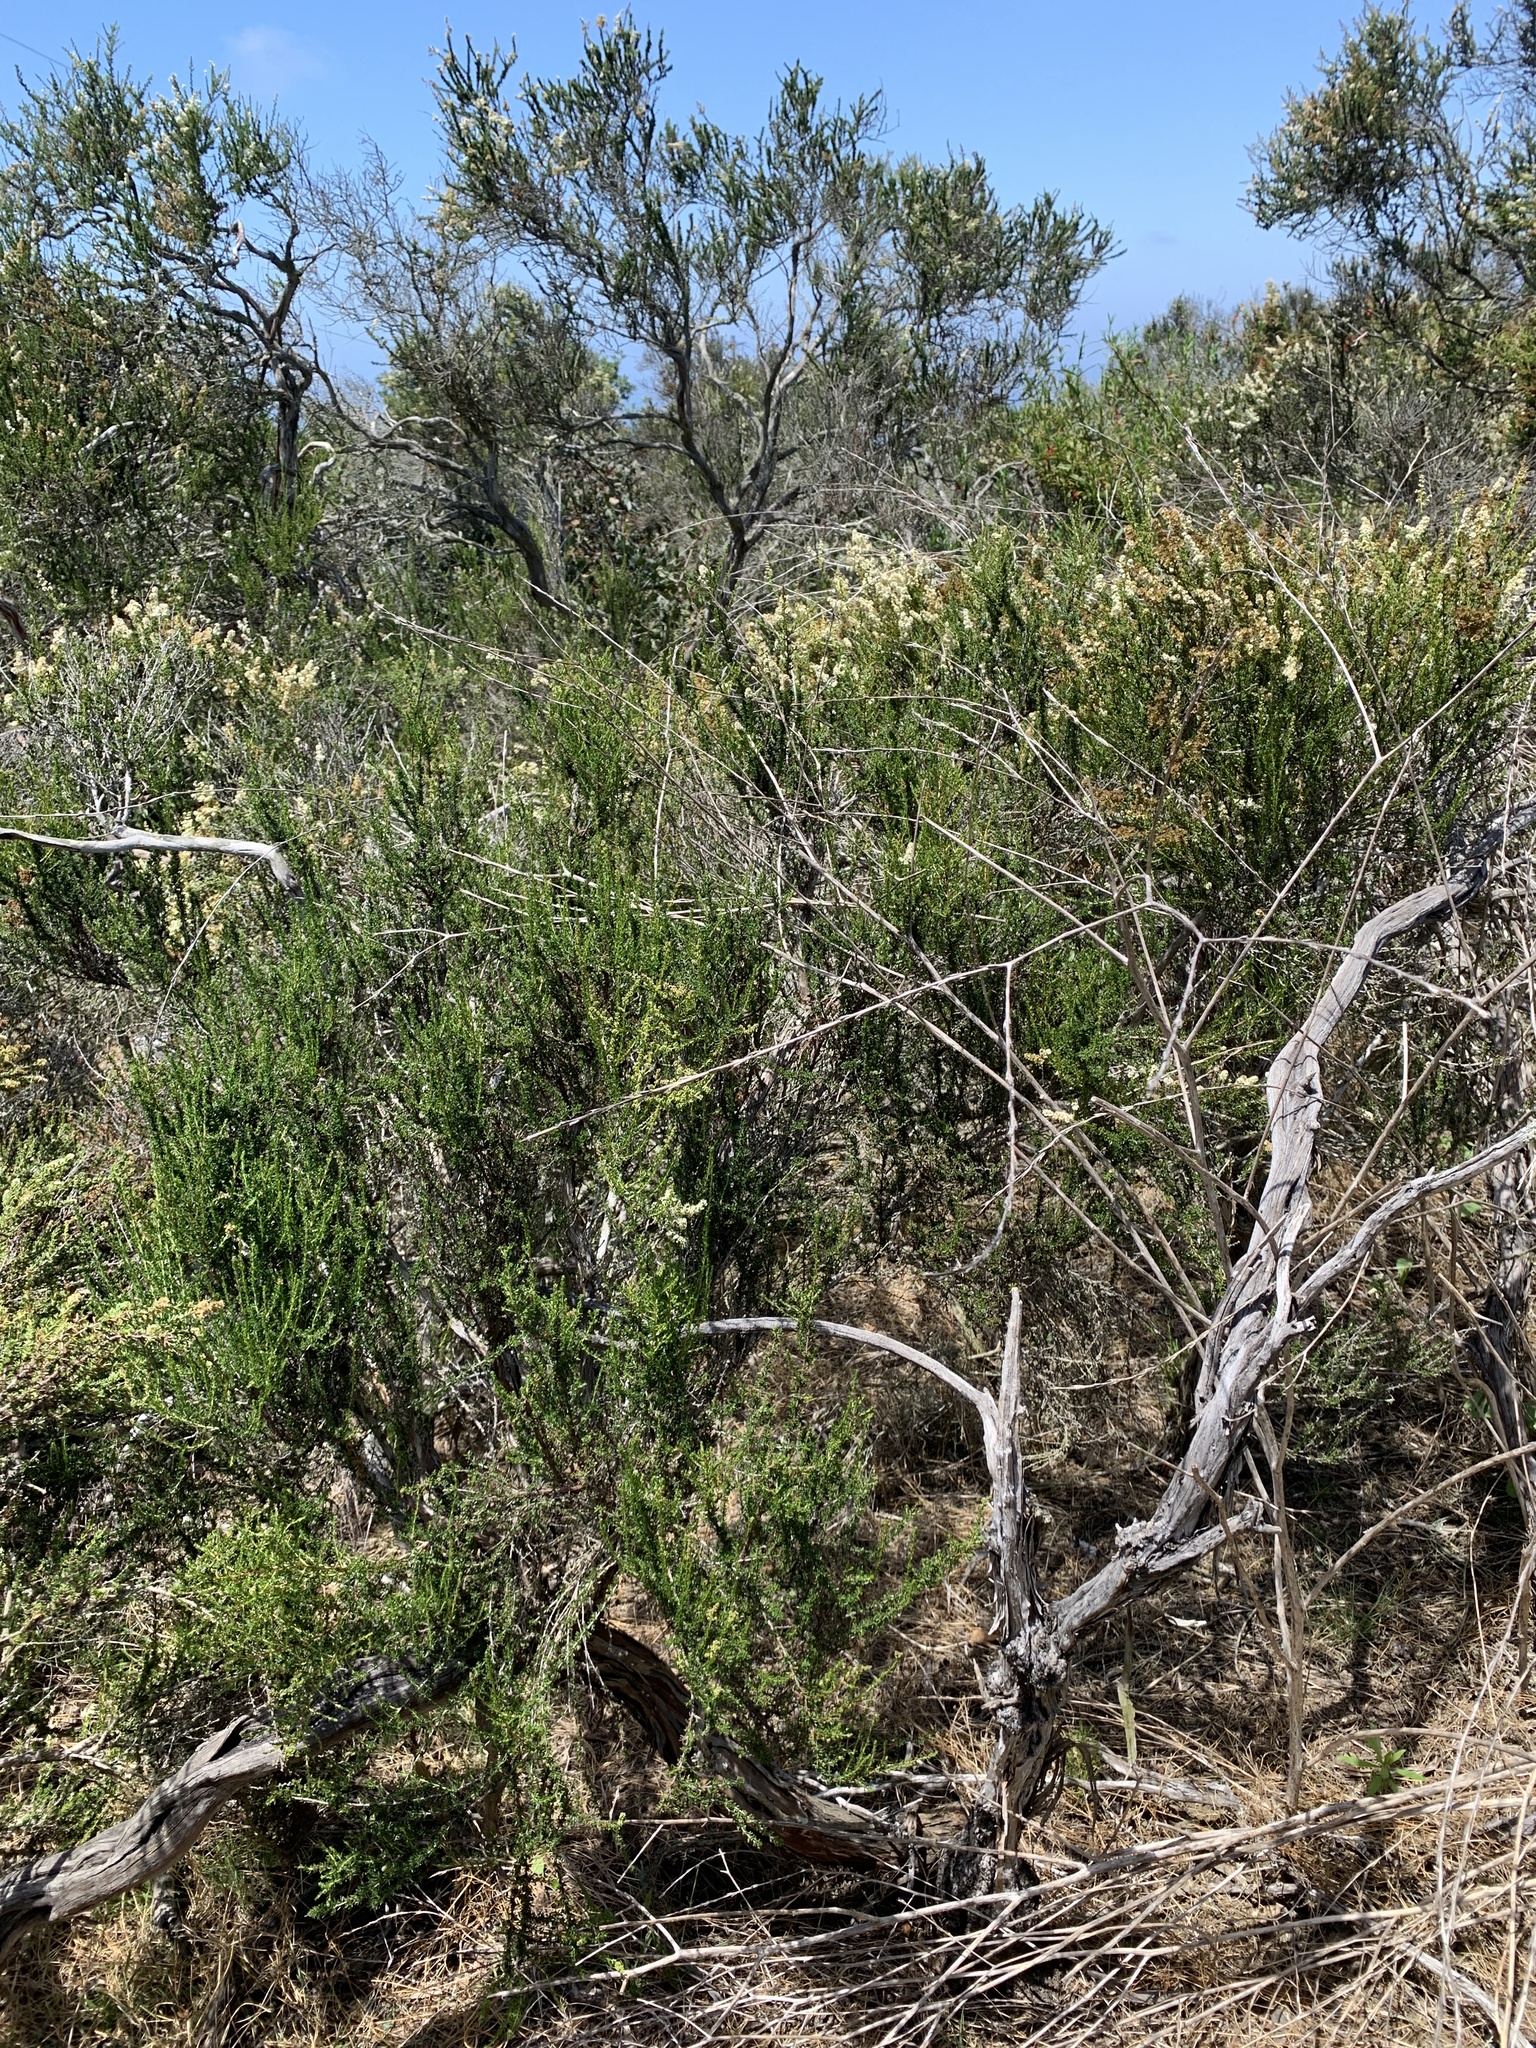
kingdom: Plantae
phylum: Tracheophyta
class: Magnoliopsida
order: Rosales
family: Rosaceae
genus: Adenostoma
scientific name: Adenostoma fasciculatum
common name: Chamise
